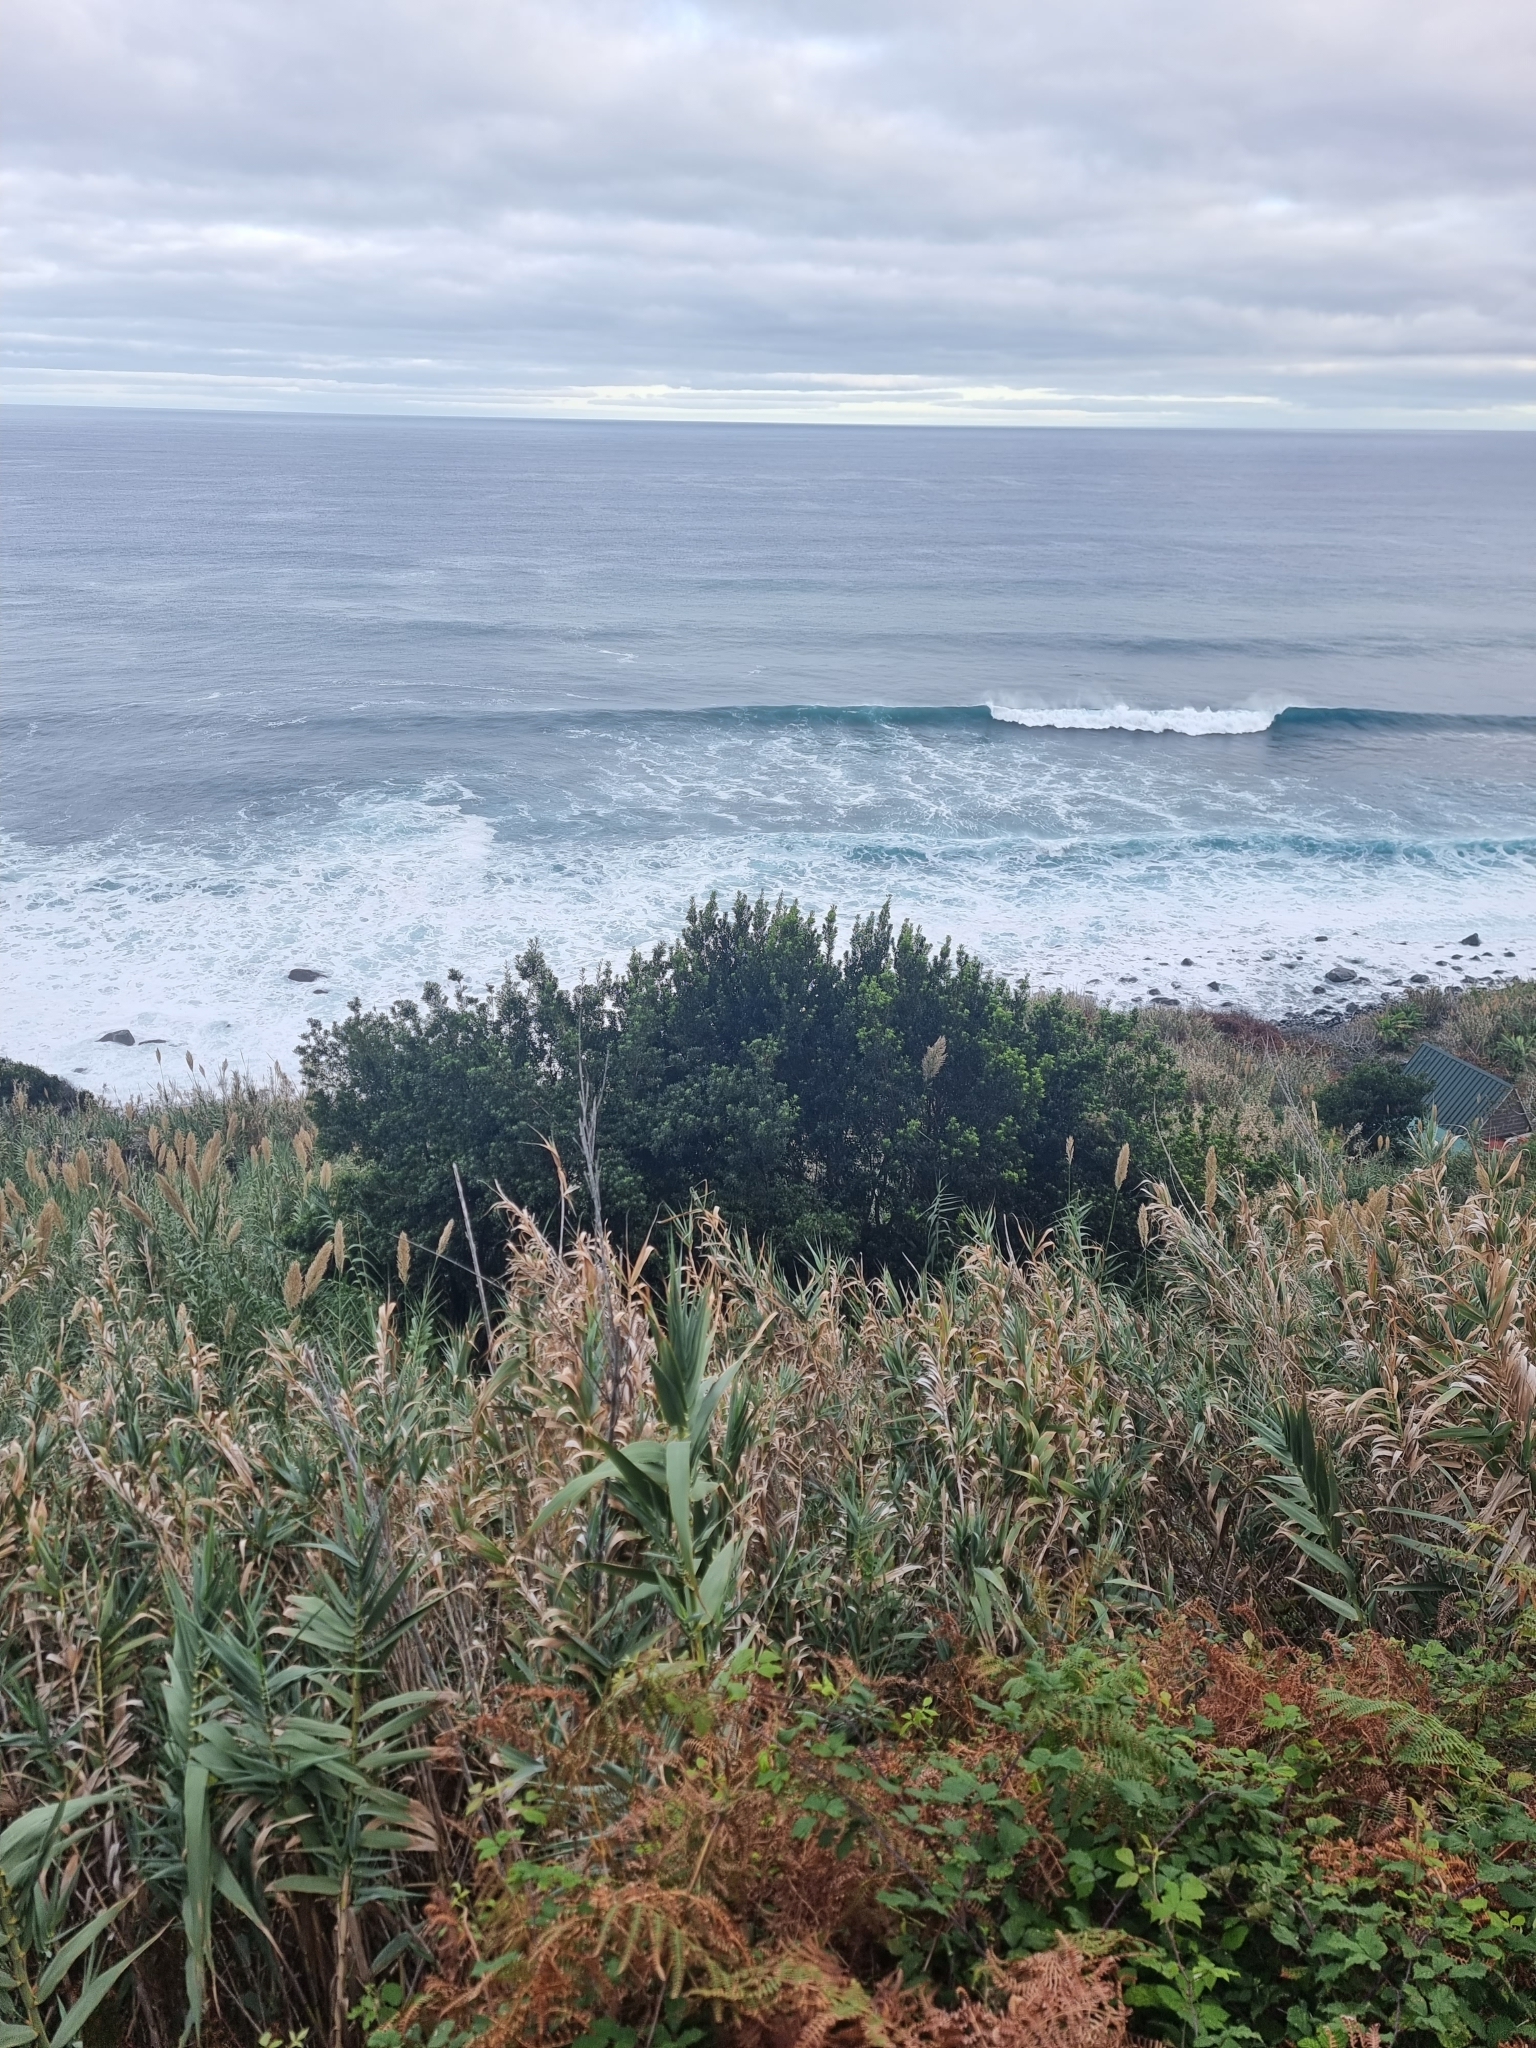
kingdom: Plantae
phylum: Tracheophyta
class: Magnoliopsida
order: Fagales
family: Myricaceae
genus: Morella
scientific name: Morella faya
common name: Firetree
